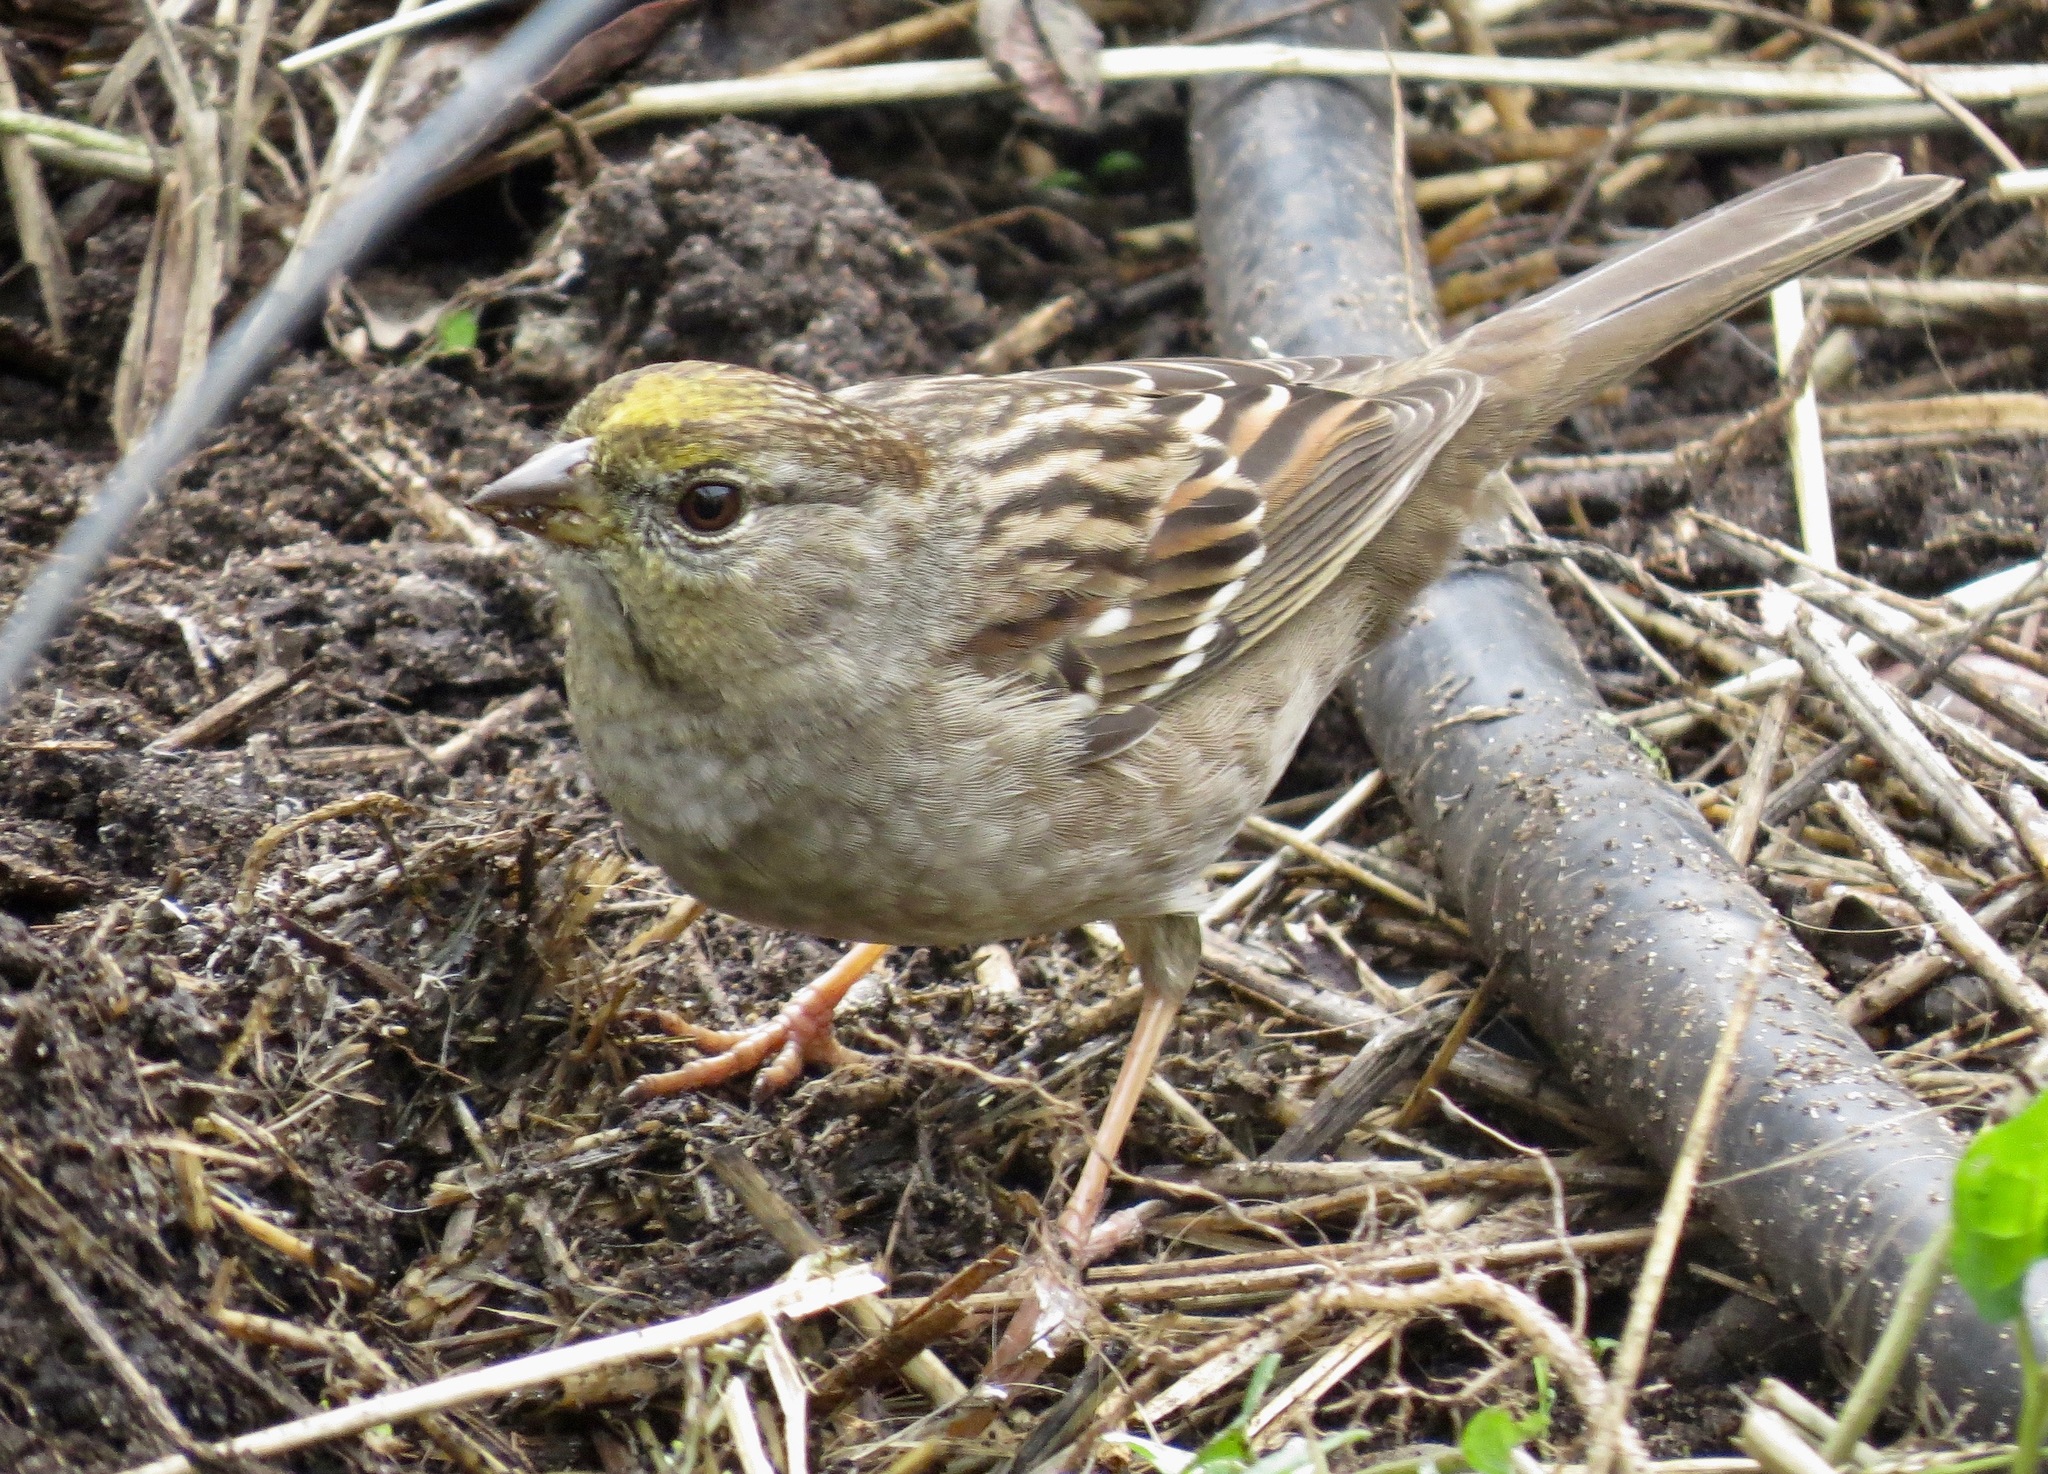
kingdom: Animalia
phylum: Chordata
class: Aves
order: Passeriformes
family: Passerellidae
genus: Zonotrichia
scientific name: Zonotrichia atricapilla
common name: Golden-crowned sparrow
